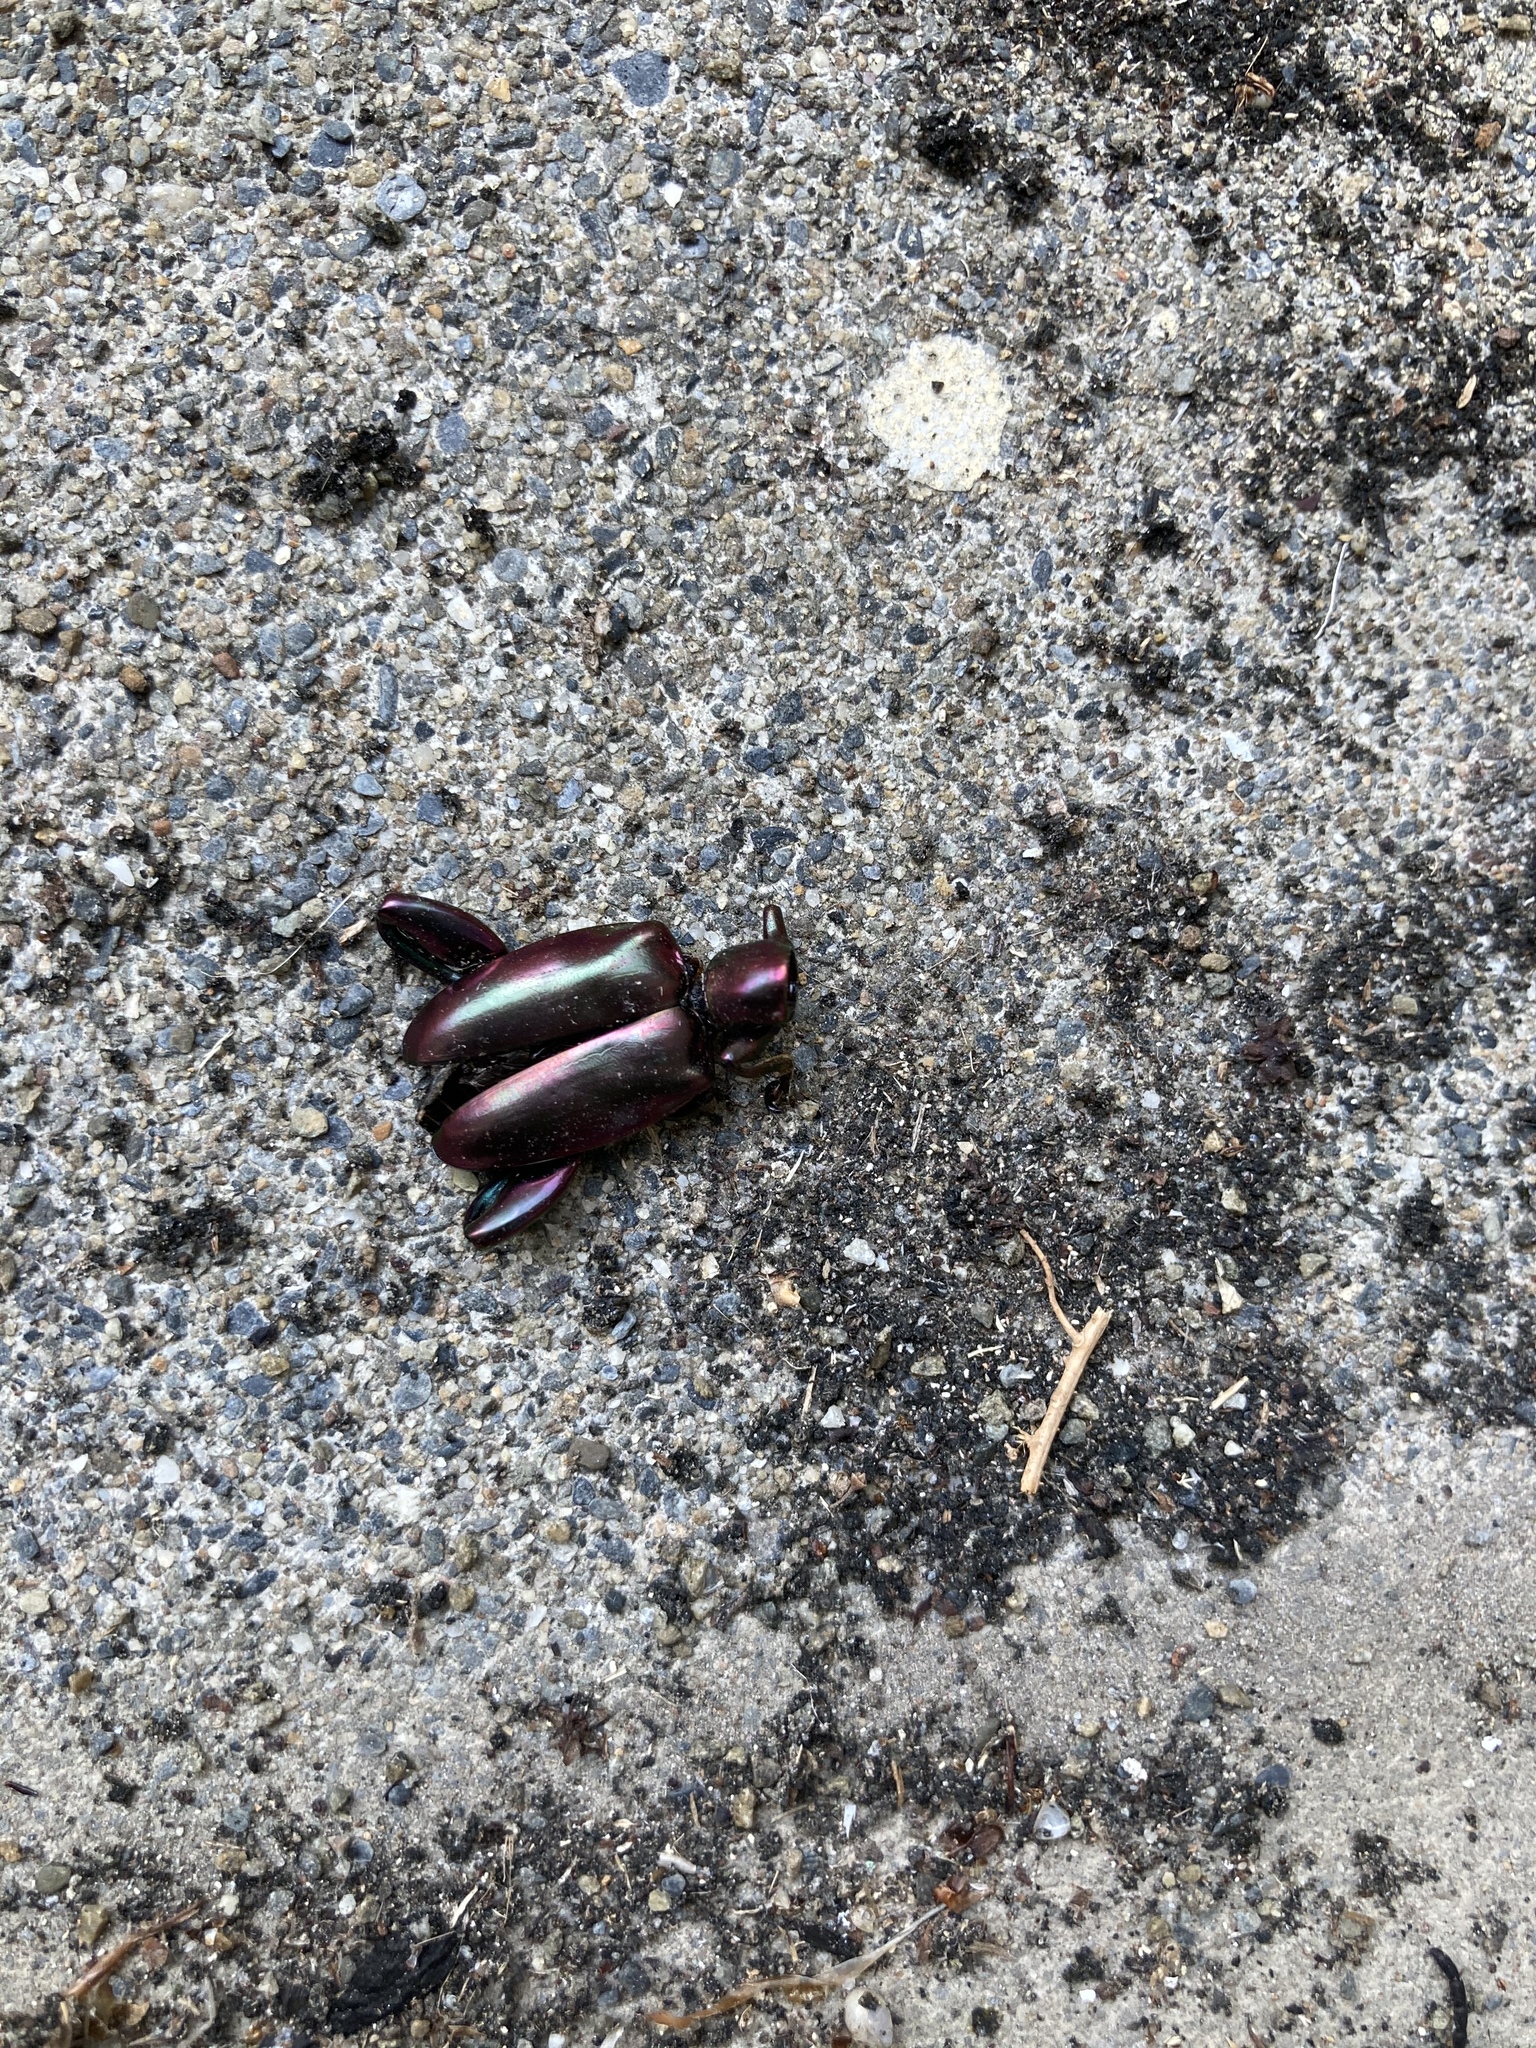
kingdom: Animalia
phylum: Arthropoda
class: Insecta
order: Coleoptera
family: Chrysomelidae
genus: Sagra
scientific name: Sagra femorata
